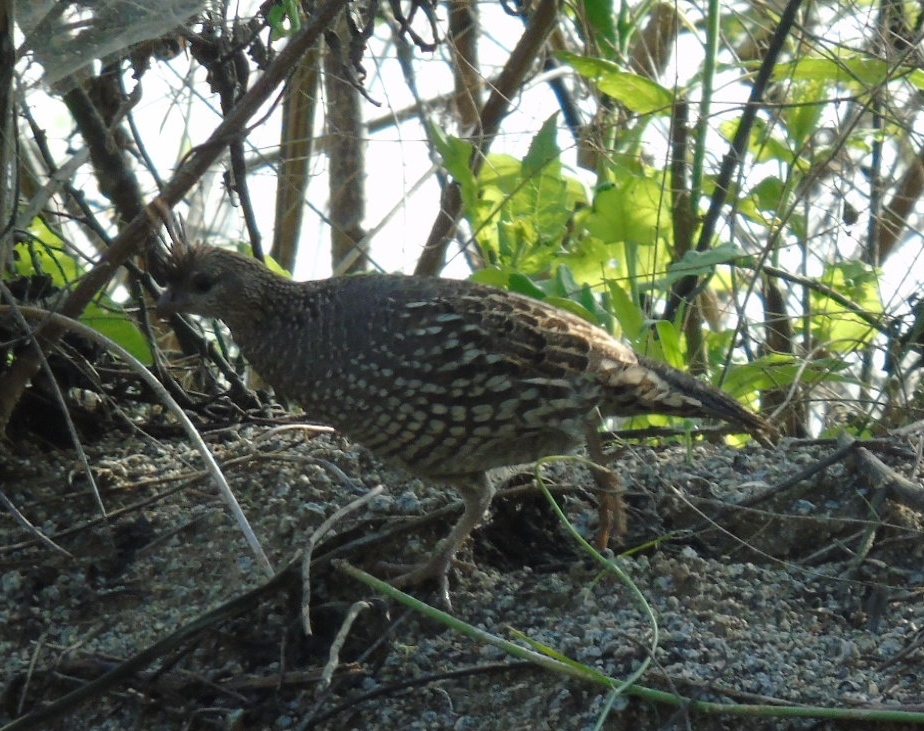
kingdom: Animalia
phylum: Chordata
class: Aves
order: Galliformes
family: Odontophoridae
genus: Callipepla
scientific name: Callipepla douglasii
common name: Elegant quail
